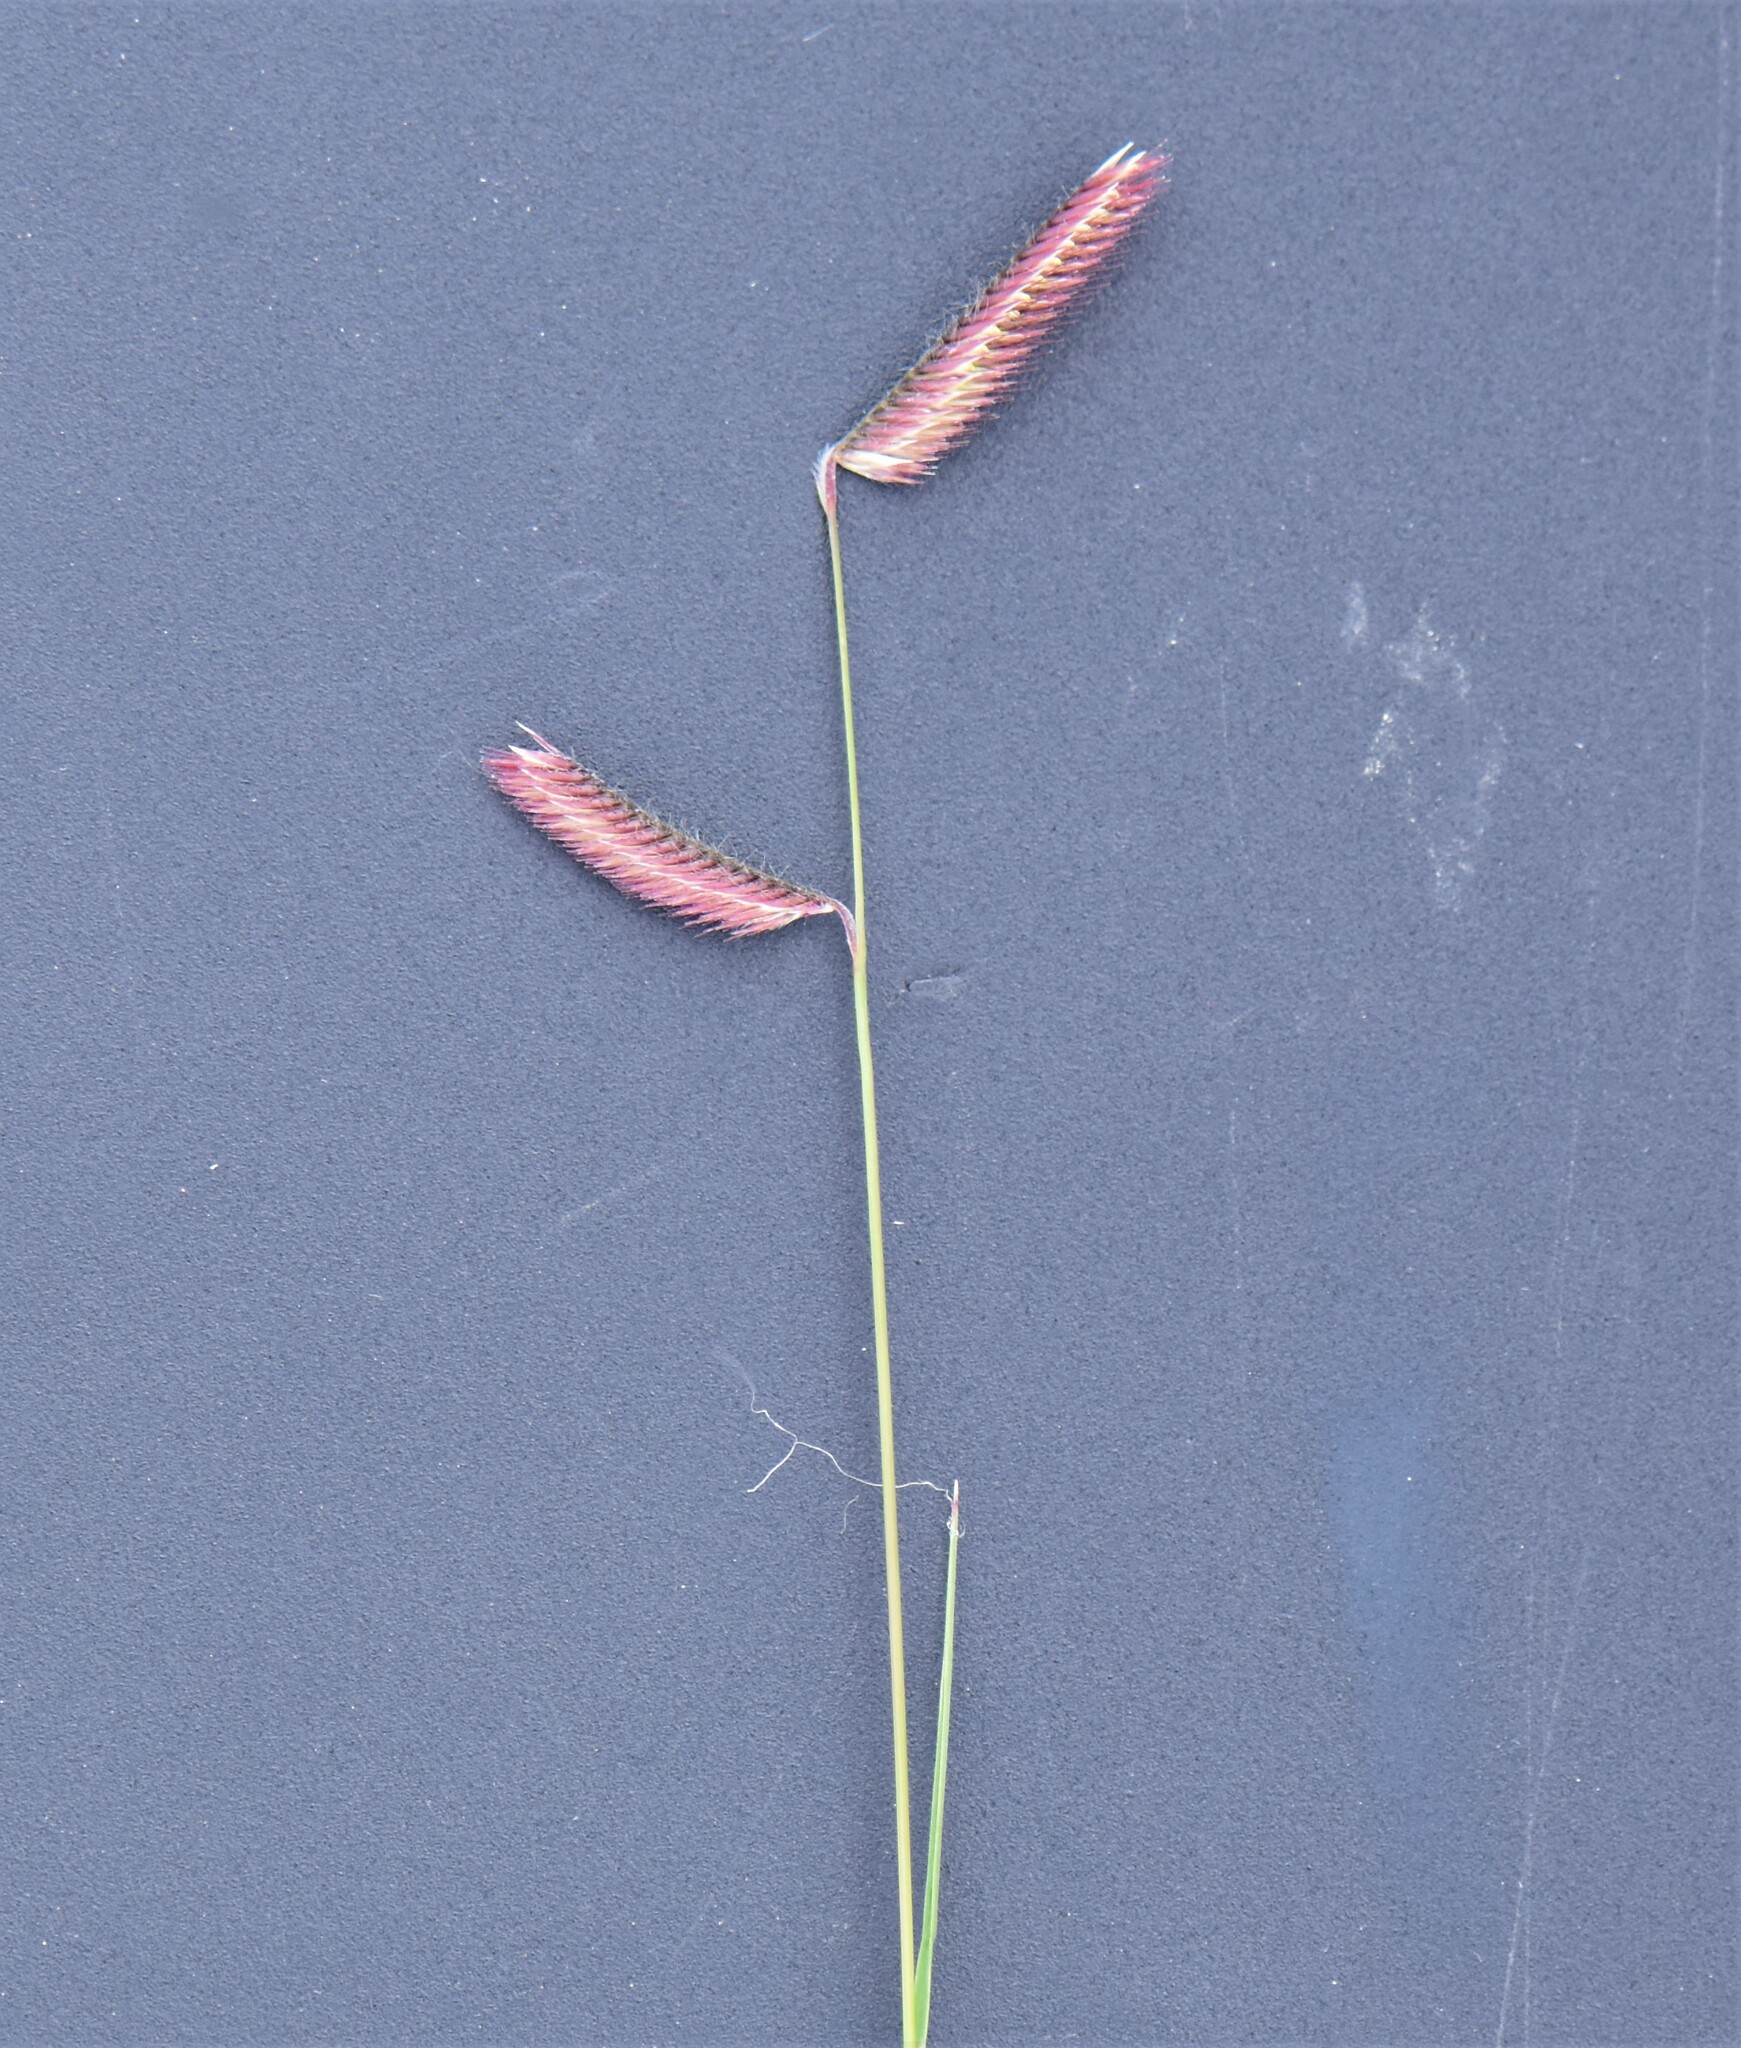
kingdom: Plantae
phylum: Tracheophyta
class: Liliopsida
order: Poales
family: Poaceae
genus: Bouteloua
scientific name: Bouteloua gracilis
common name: Blue grama
